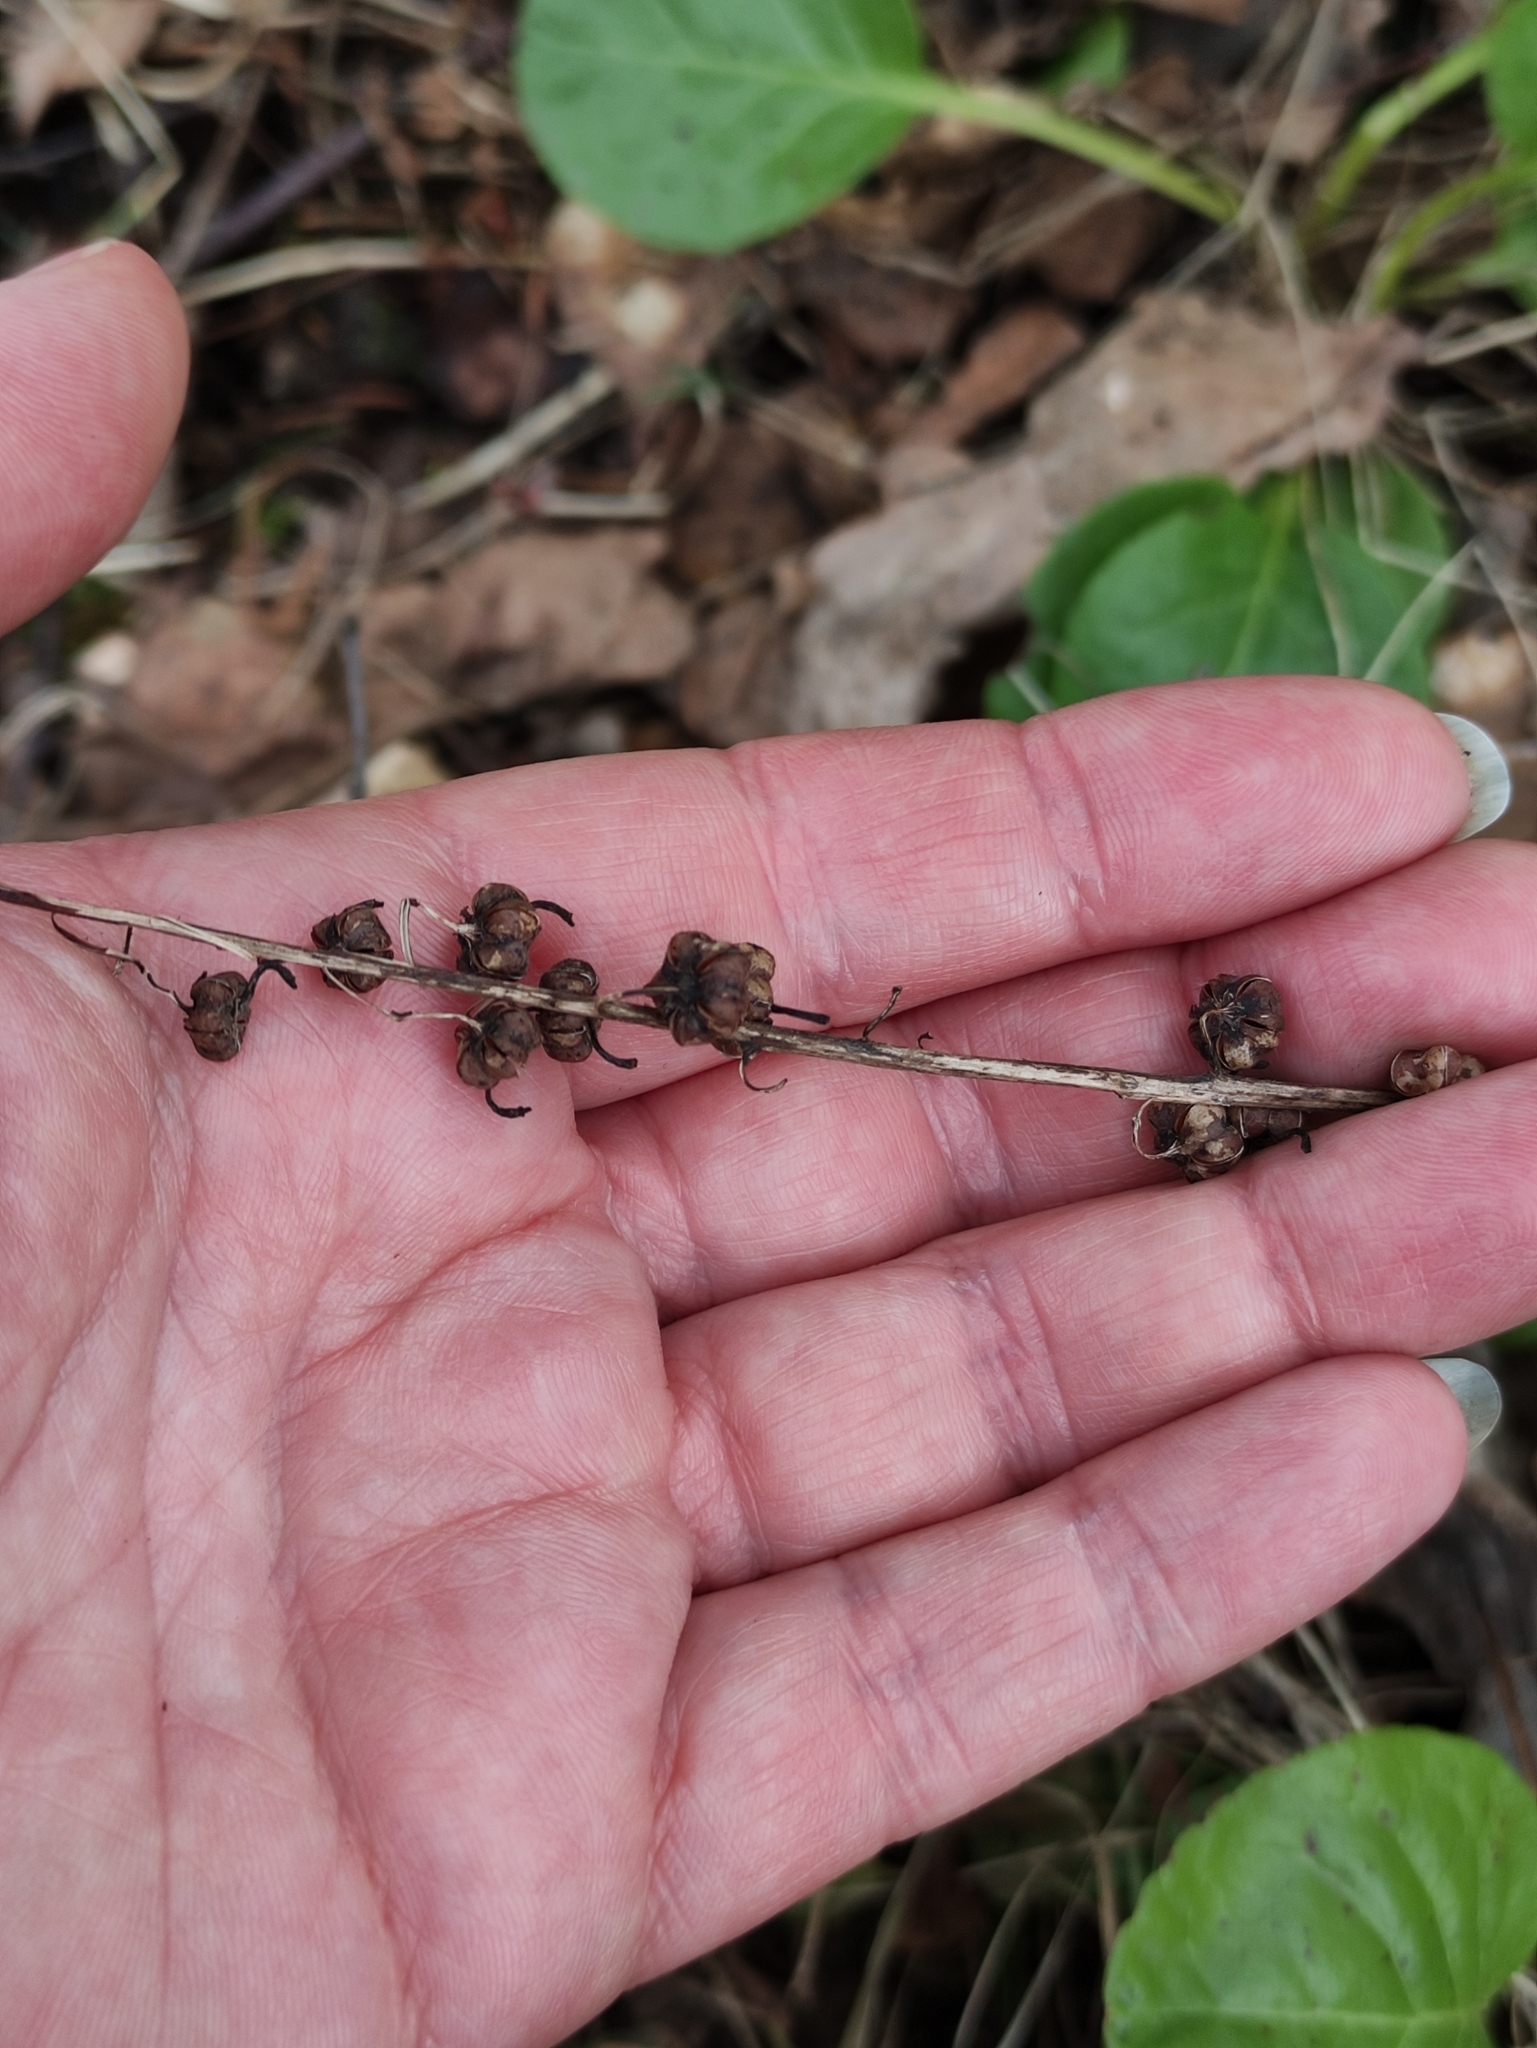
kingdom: Plantae
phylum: Tracheophyta
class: Magnoliopsida
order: Ericales
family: Ericaceae
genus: Pyrola
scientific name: Pyrola rotundifolia
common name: Round-leaved wintergreen
